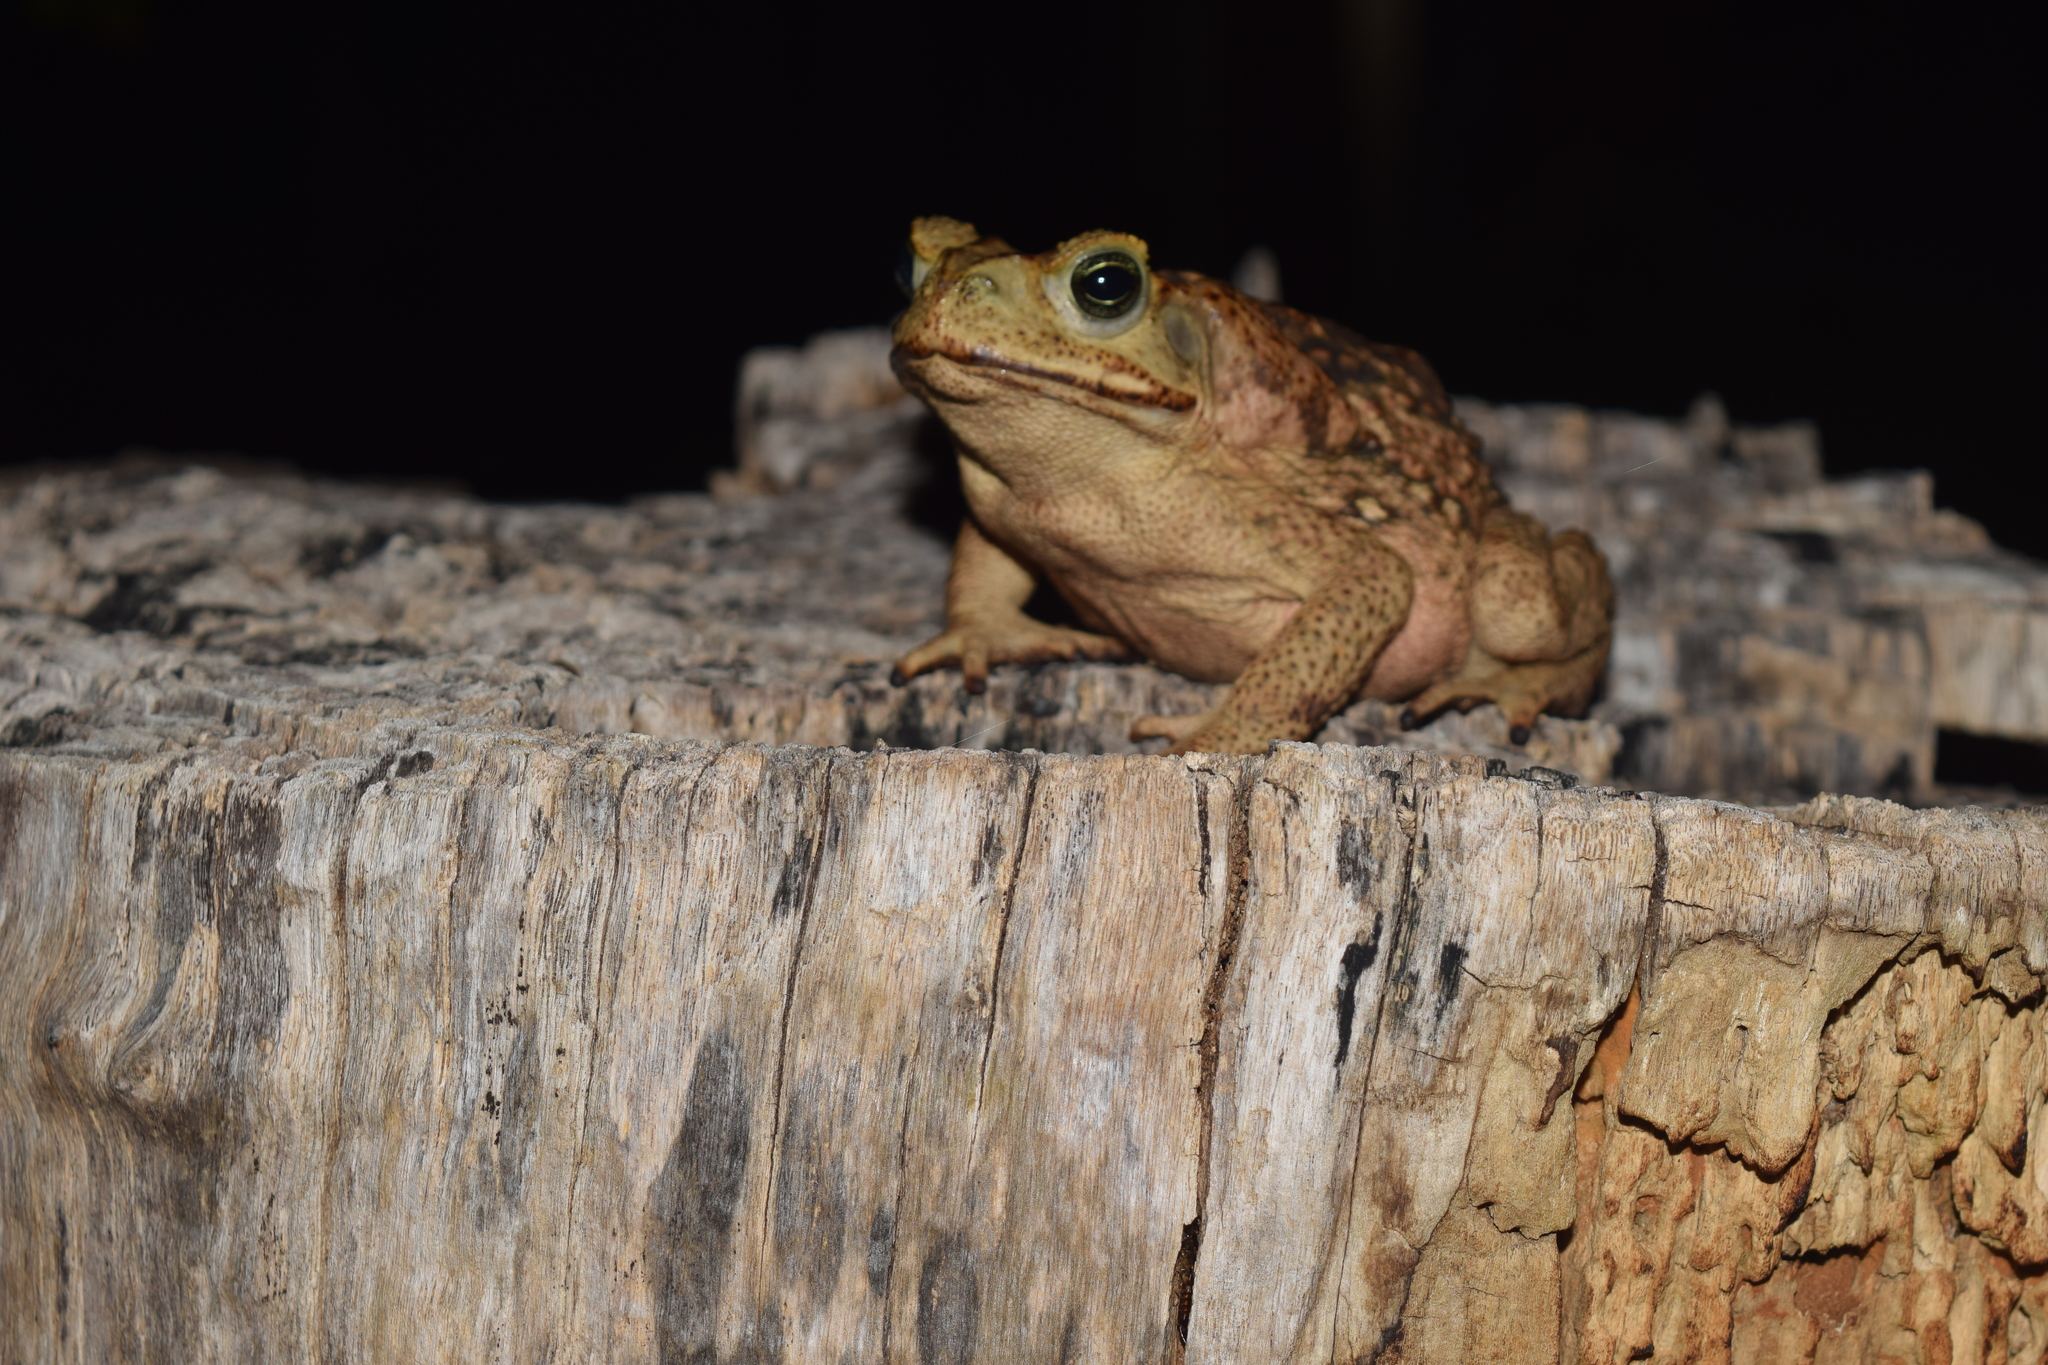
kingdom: Animalia
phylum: Chordata
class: Amphibia
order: Anura
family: Bufonidae
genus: Rhinella
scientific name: Rhinella horribilis
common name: Mesoamerican cane toad
